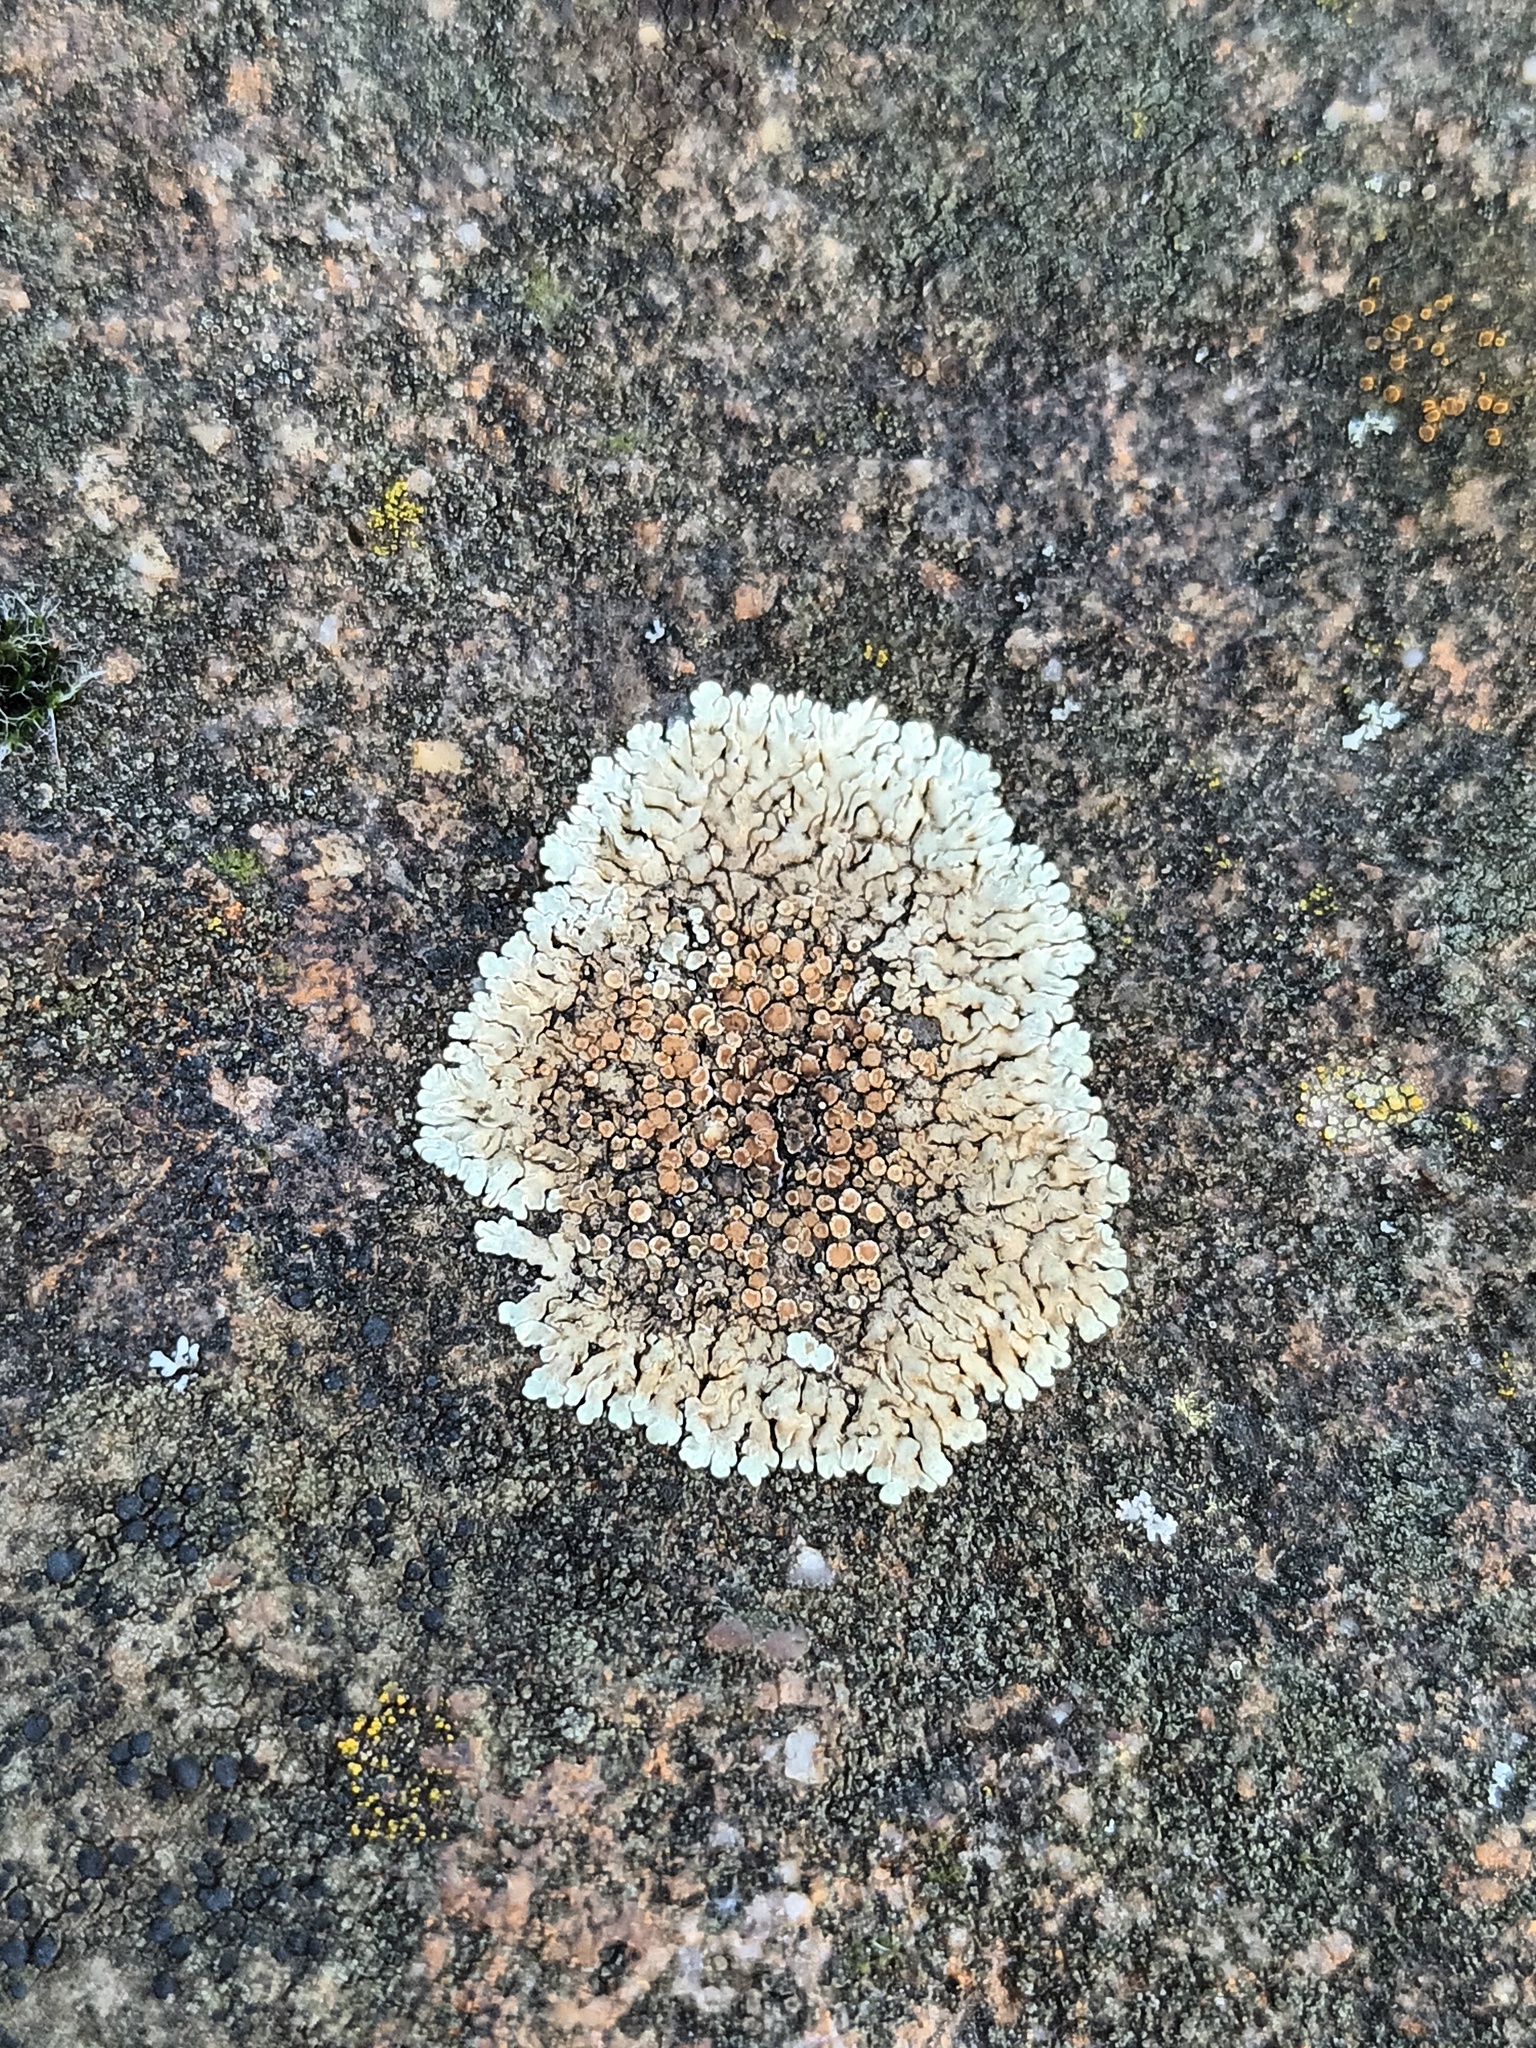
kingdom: Fungi
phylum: Ascomycota
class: Lecanoromycetes
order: Lecanorales
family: Lecanoraceae
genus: Protoparmeliopsis
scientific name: Protoparmeliopsis muralis
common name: Stonewall rim lichen
